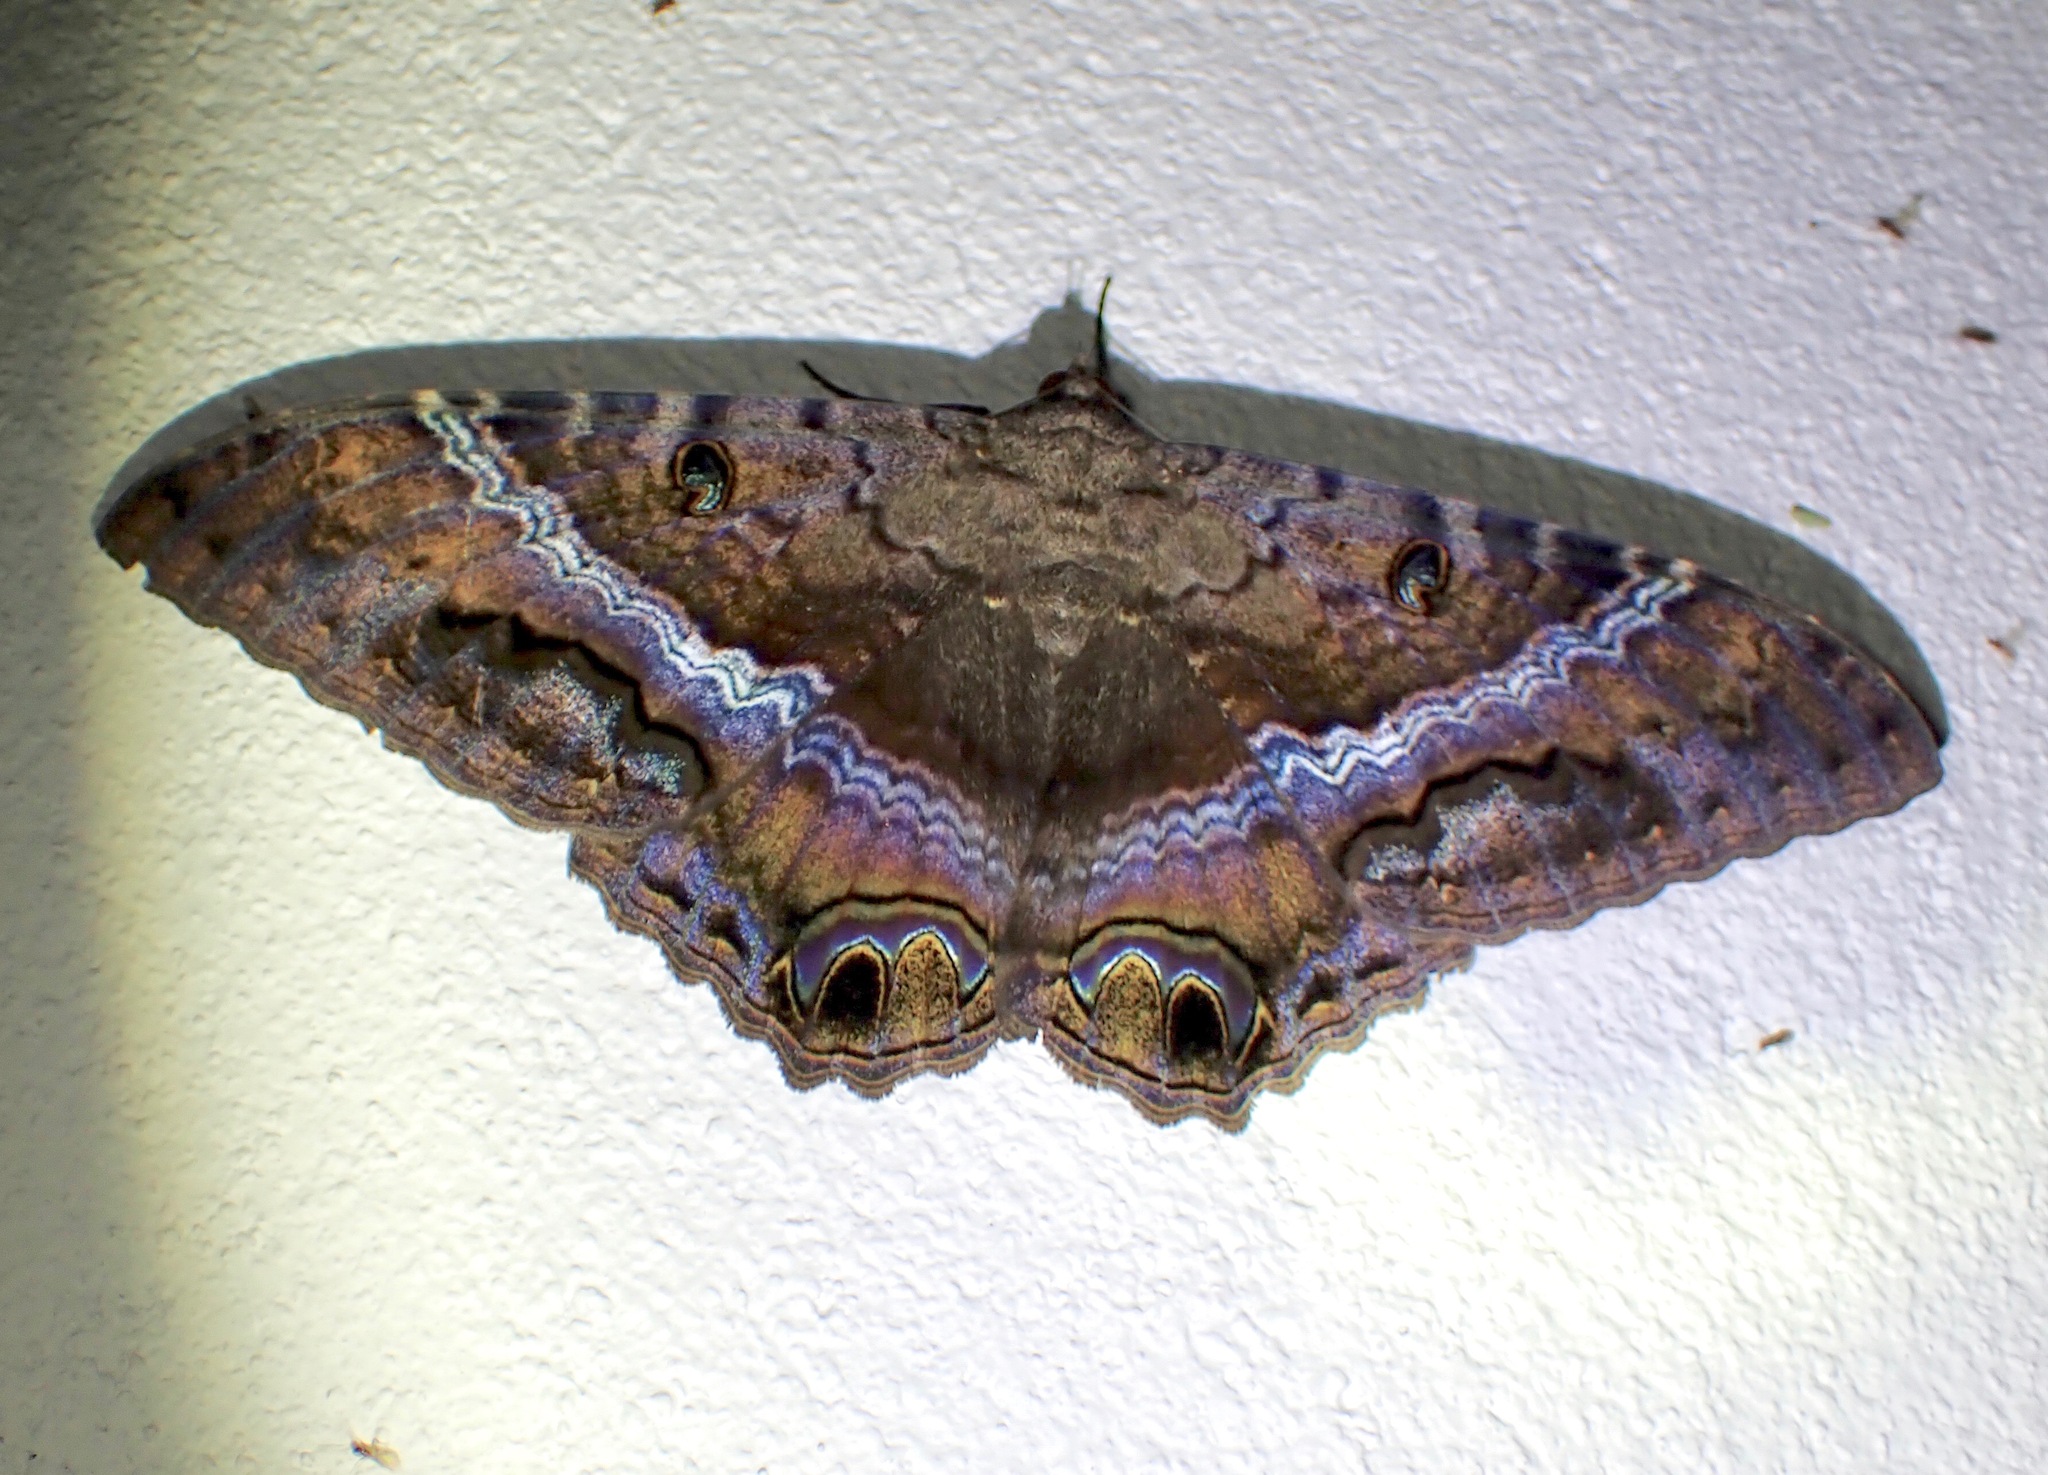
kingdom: Animalia
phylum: Arthropoda
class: Insecta
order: Lepidoptera
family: Erebidae
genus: Ascalapha
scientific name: Ascalapha odorata
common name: Black witch
